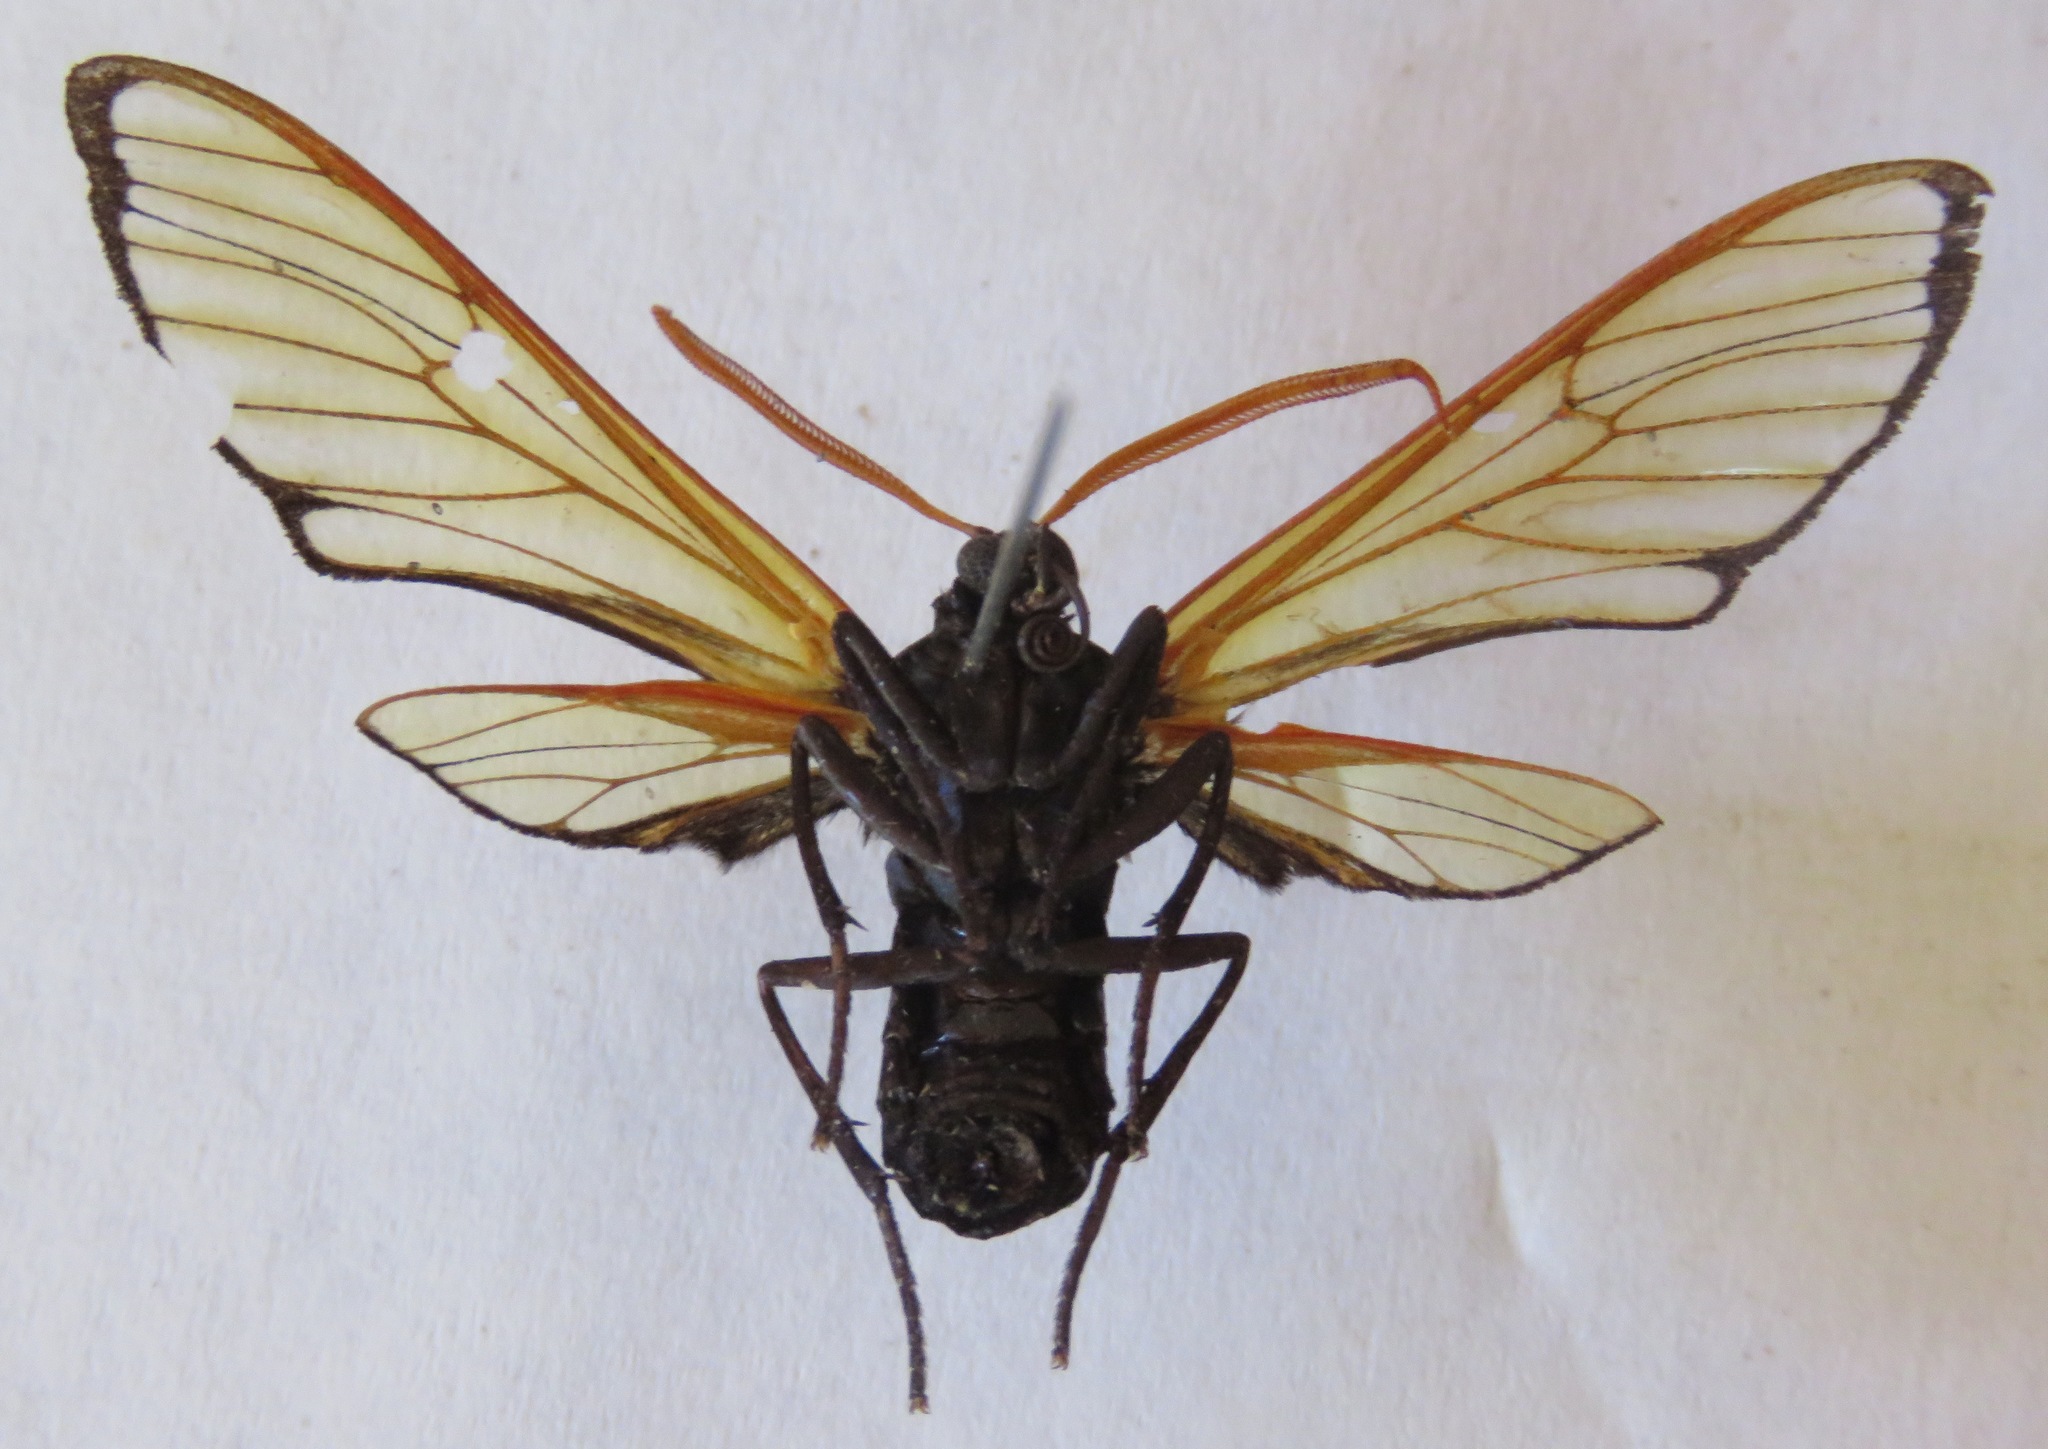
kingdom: Animalia
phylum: Arthropoda
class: Insecta
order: Lepidoptera
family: Erebidae
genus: Isanthrene
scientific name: Isanthrene echemon
